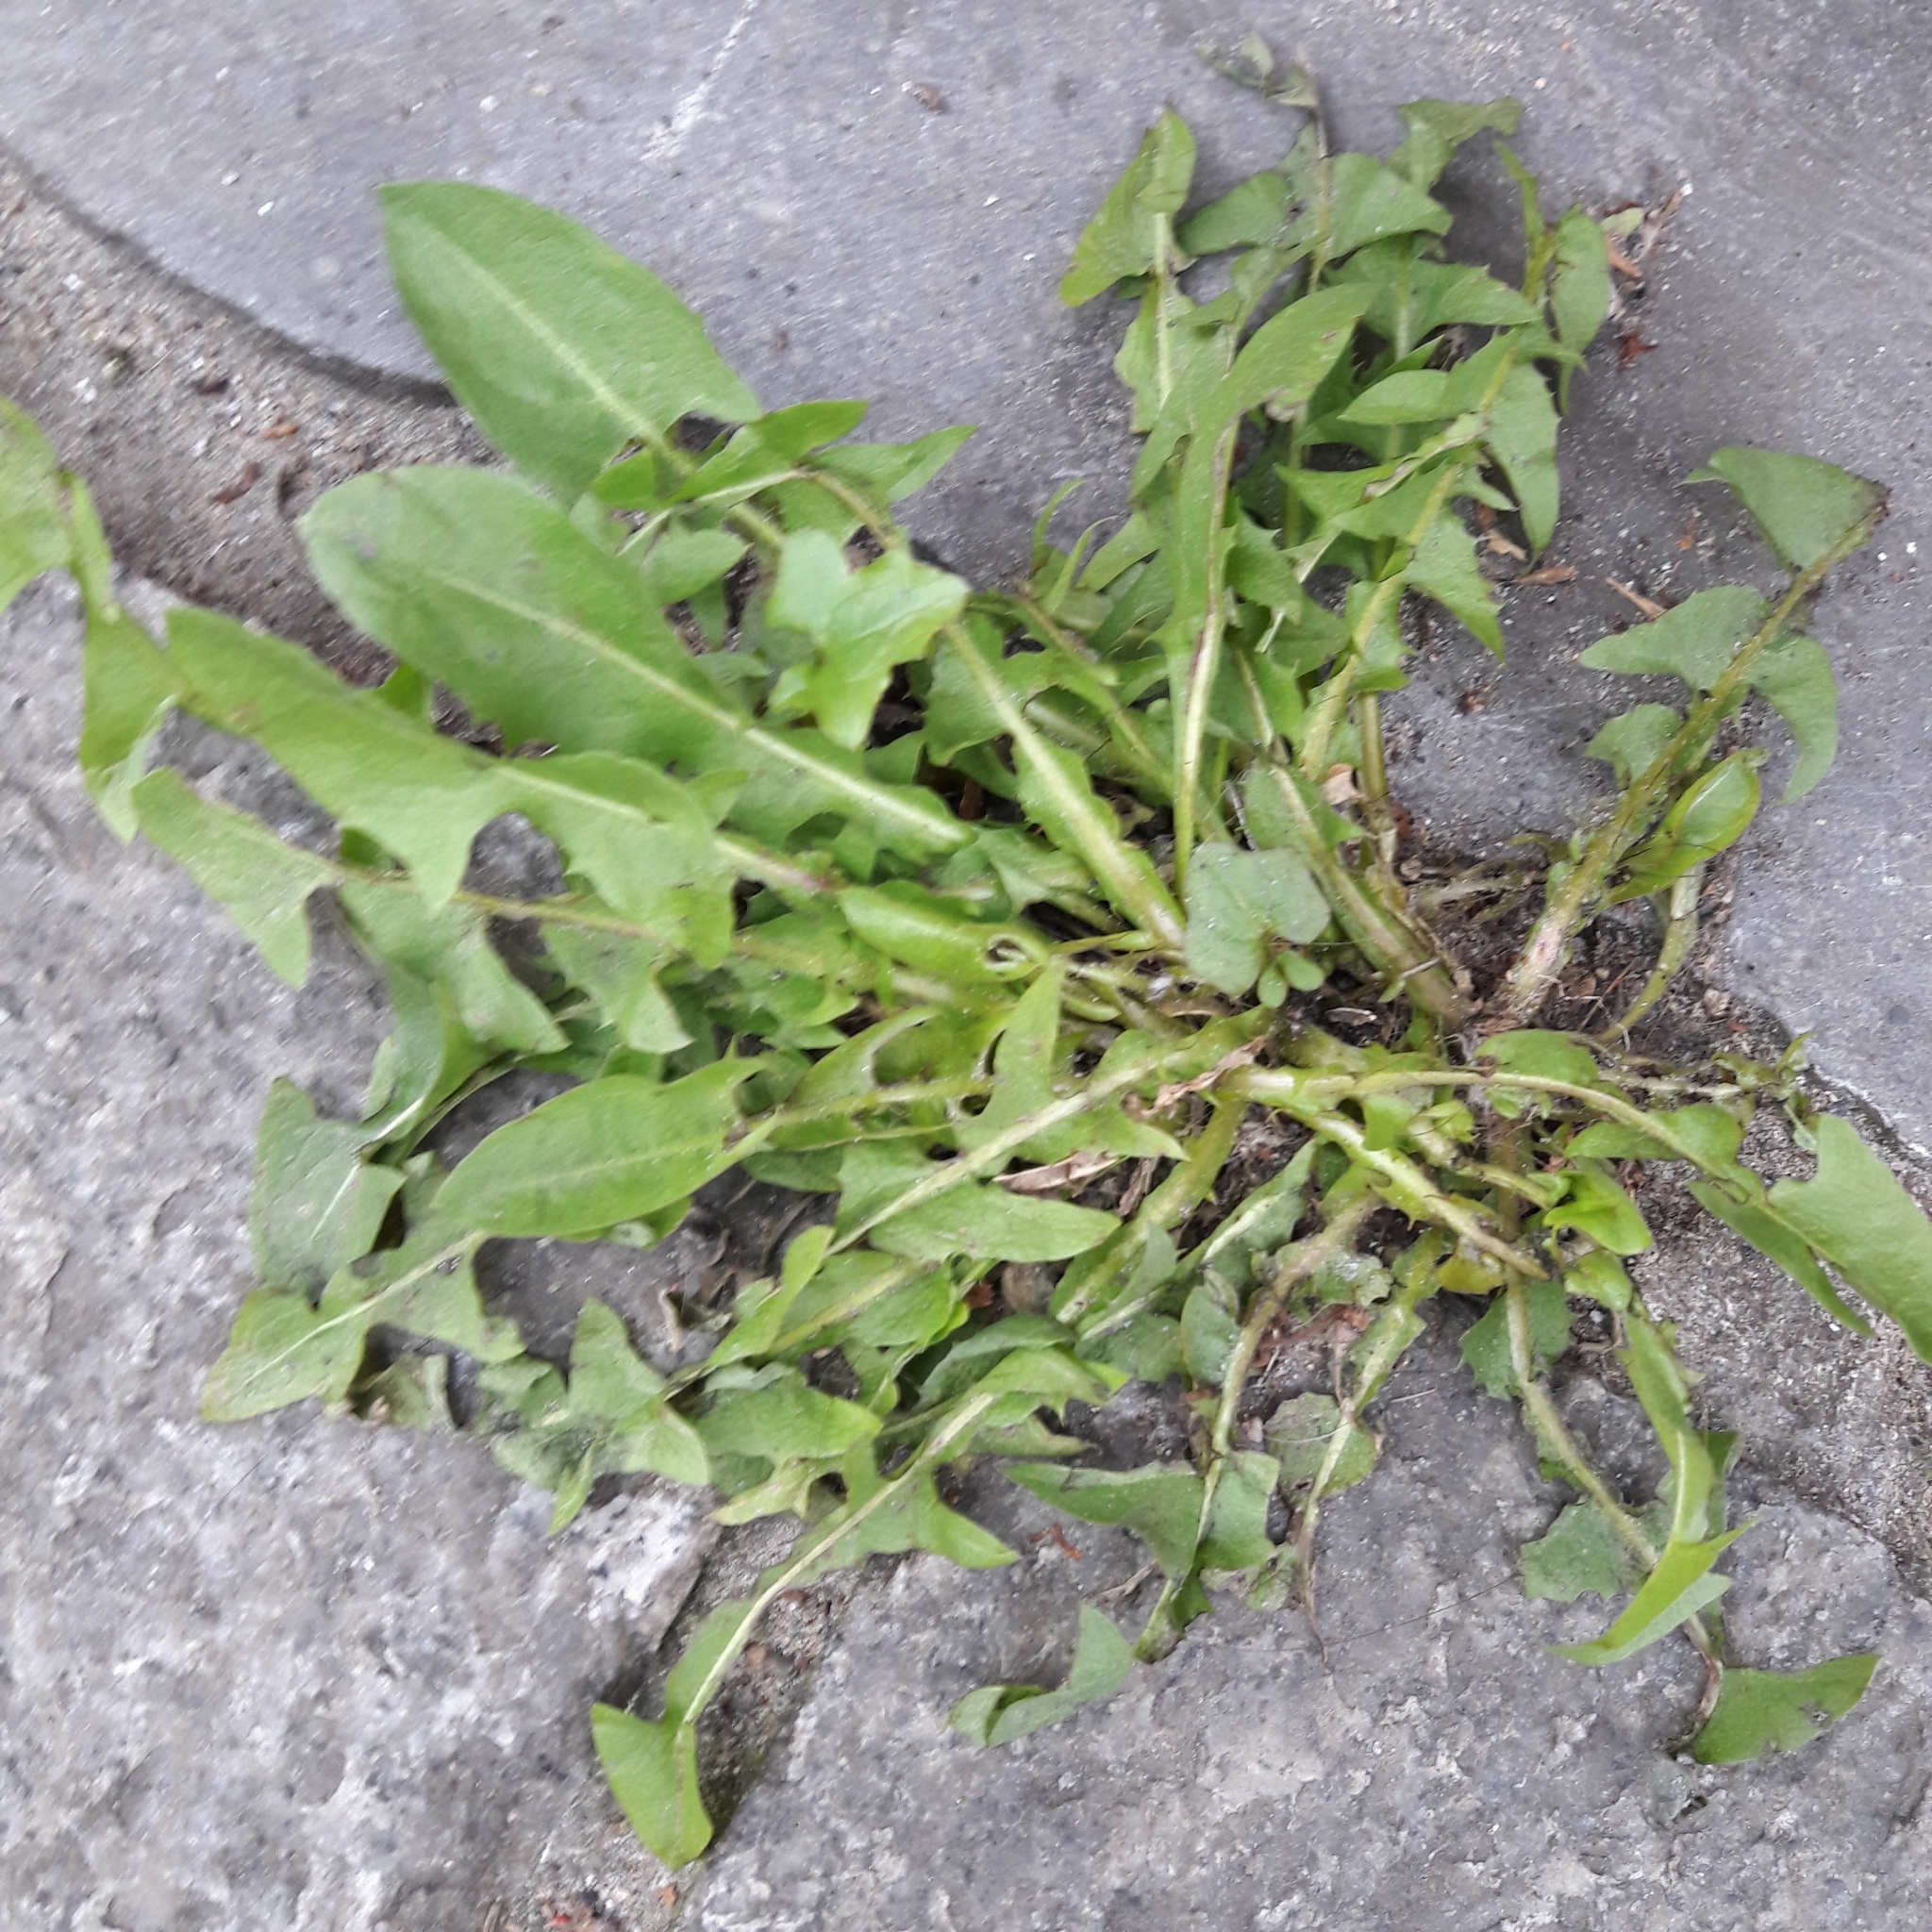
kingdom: Plantae
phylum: Tracheophyta
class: Magnoliopsida
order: Asterales
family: Asteraceae
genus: Taraxacum
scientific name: Taraxacum officinale
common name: Common dandelion
